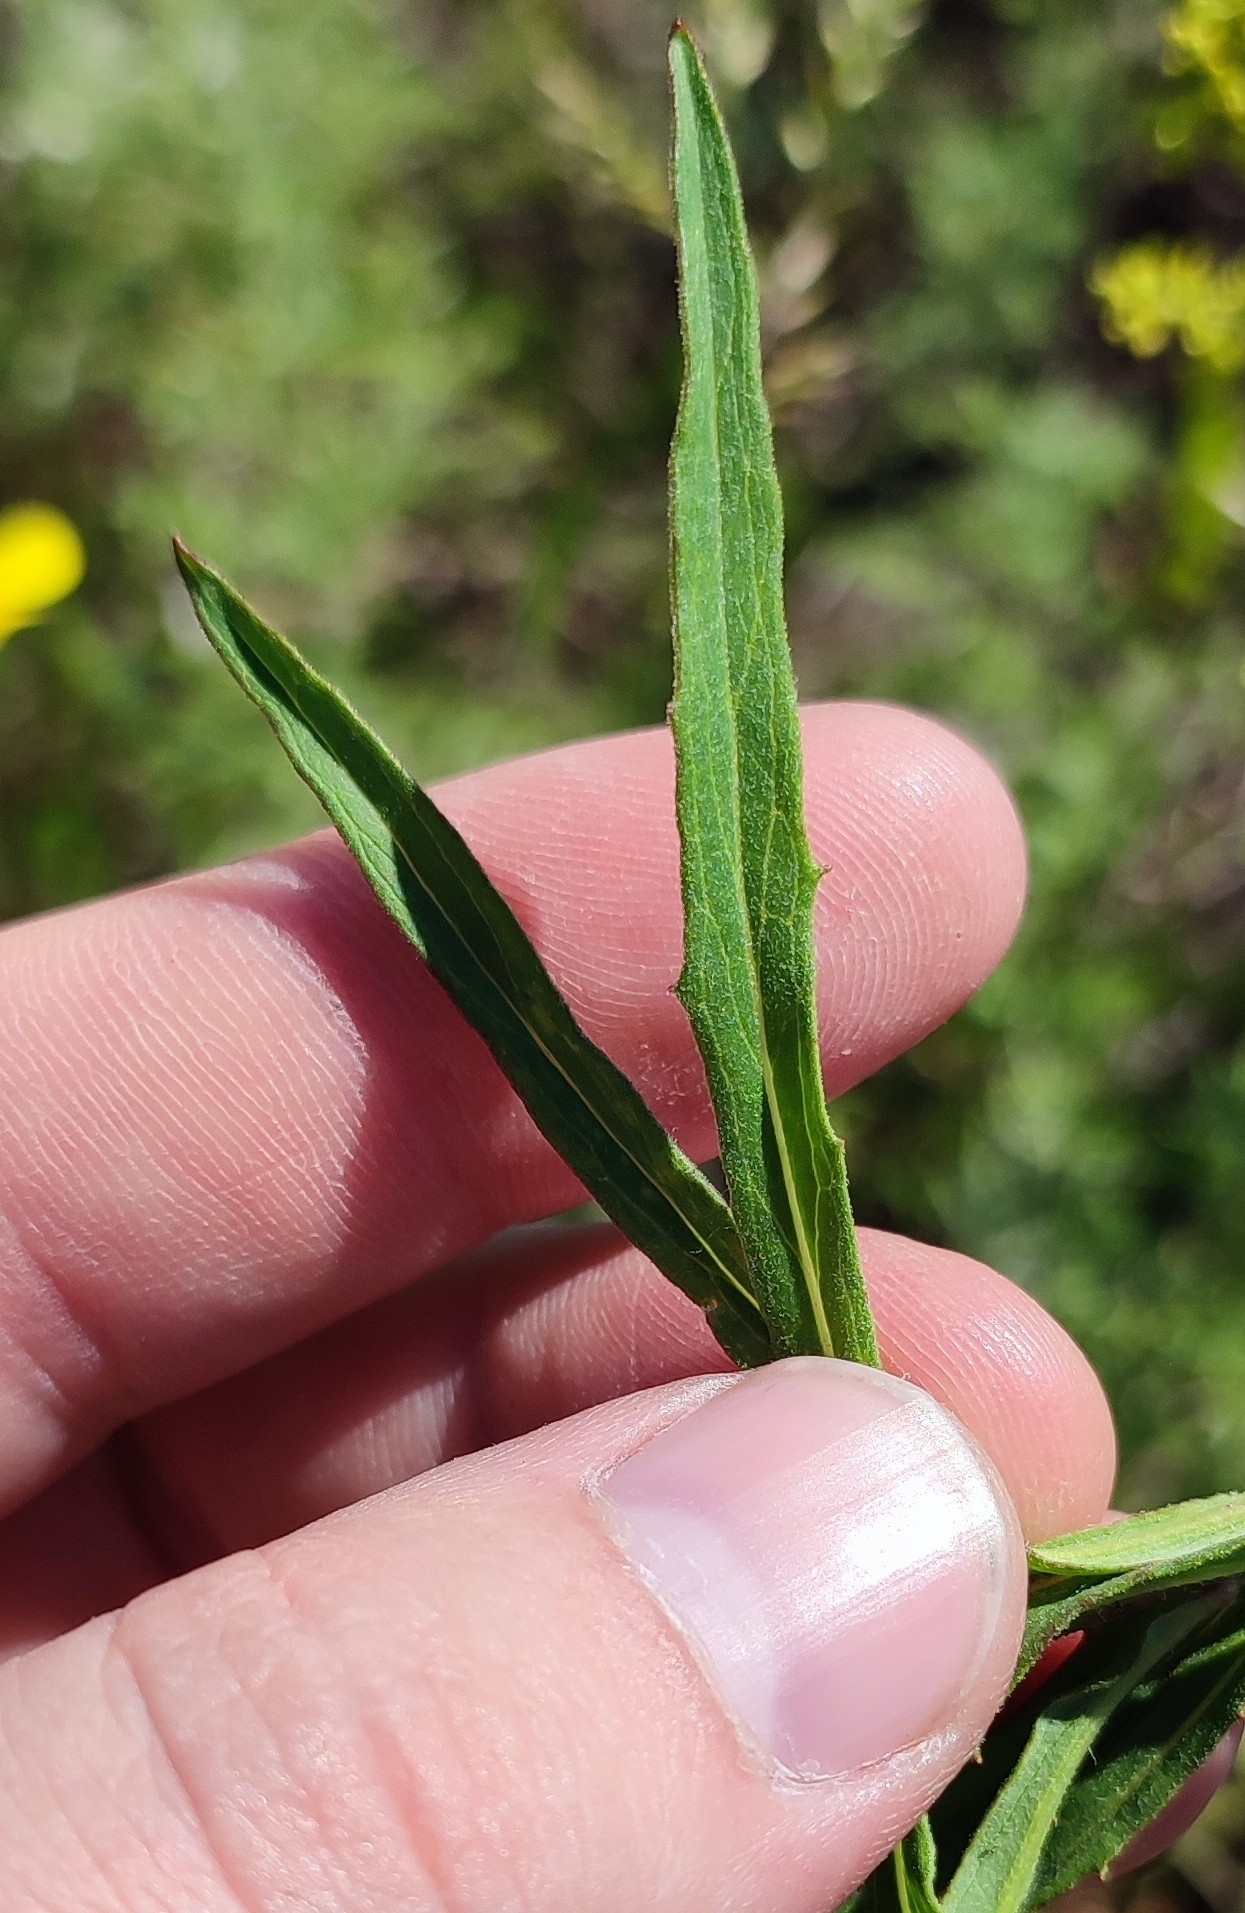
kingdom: Plantae
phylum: Tracheophyta
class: Magnoliopsida
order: Asterales
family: Asteraceae
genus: Hieracium
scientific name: Hieracium umbellatum
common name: Northern hawkweed
